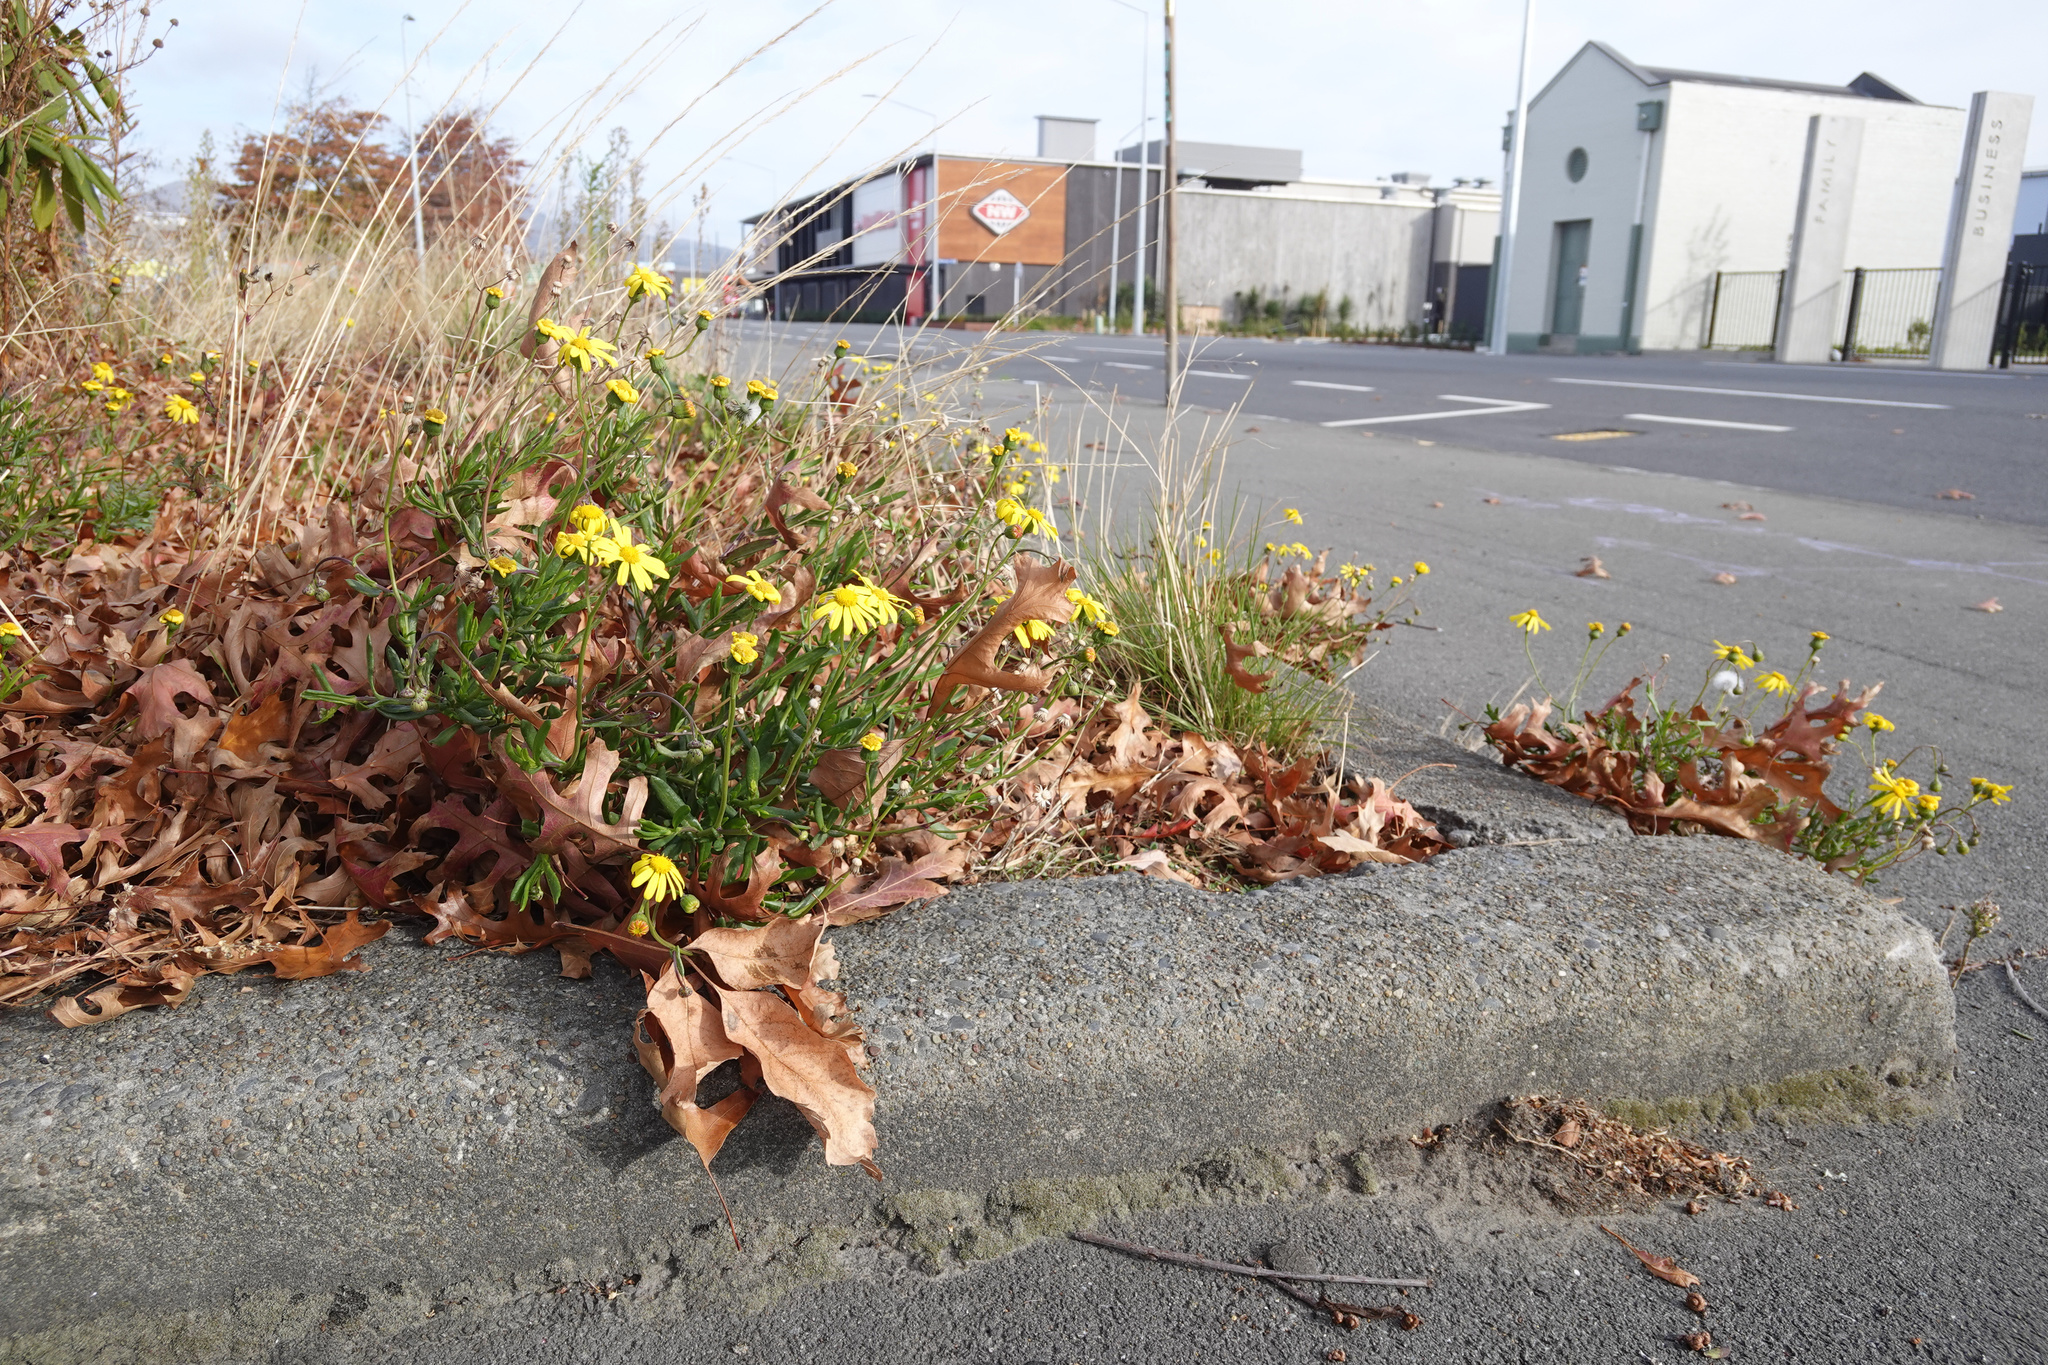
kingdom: Plantae
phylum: Tracheophyta
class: Magnoliopsida
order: Asterales
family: Asteraceae
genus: Senecio
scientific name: Senecio skirrhodon
